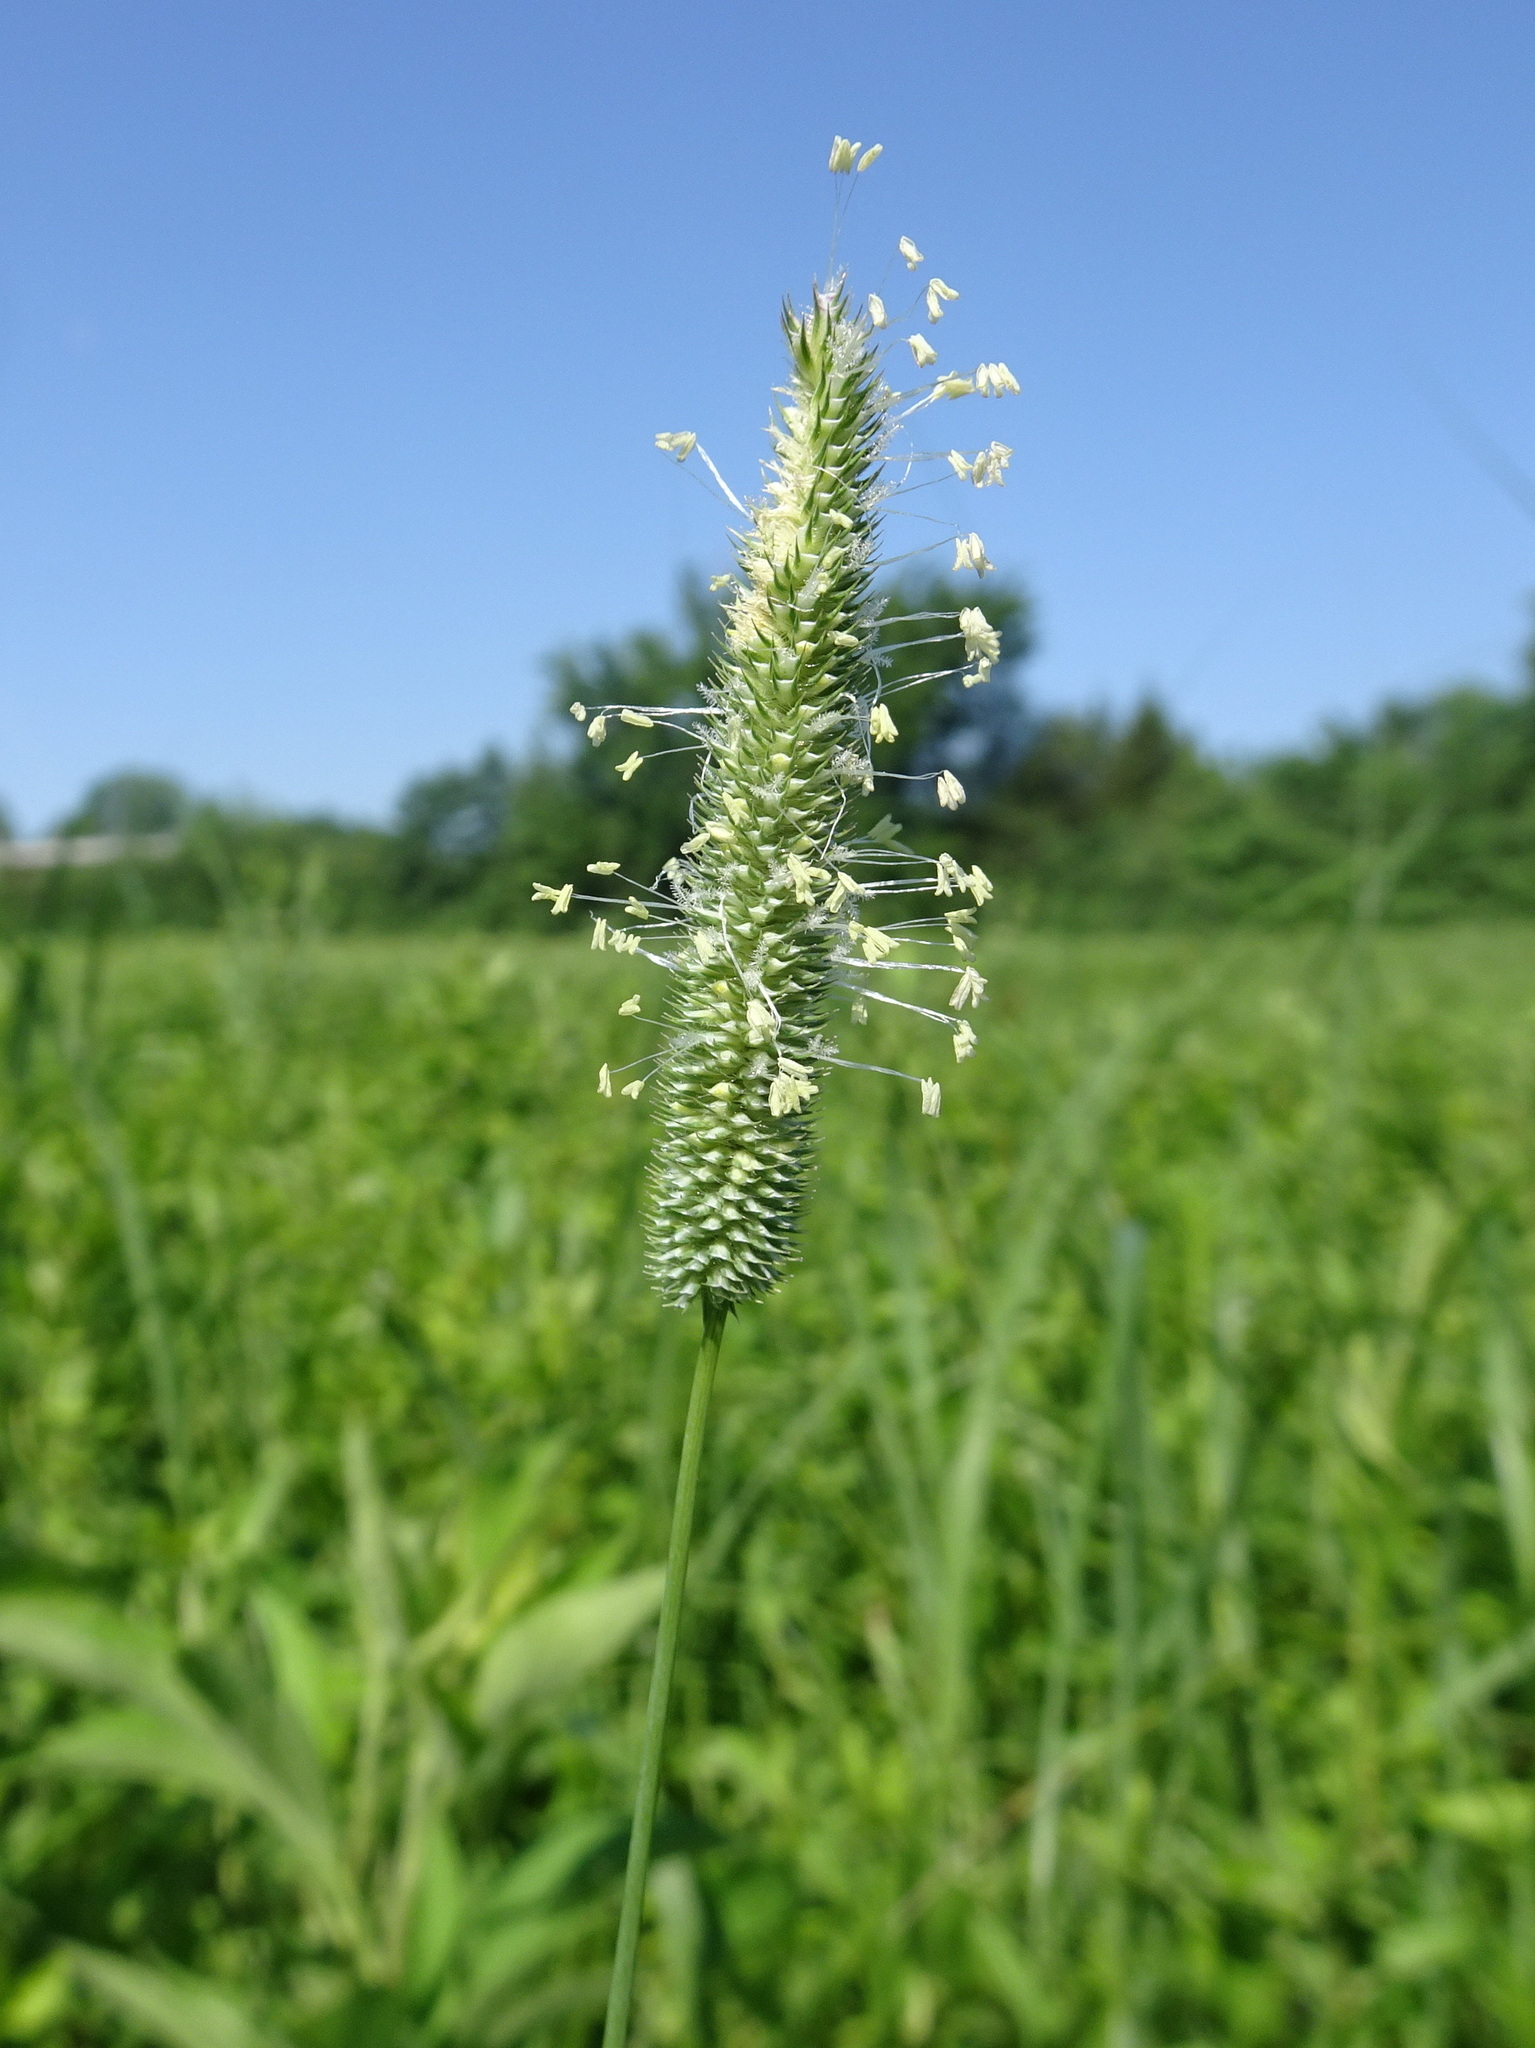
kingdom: Plantae
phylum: Tracheophyta
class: Liliopsida
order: Poales
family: Poaceae
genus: Phleum
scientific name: Phleum pratense
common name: Timothy grass
